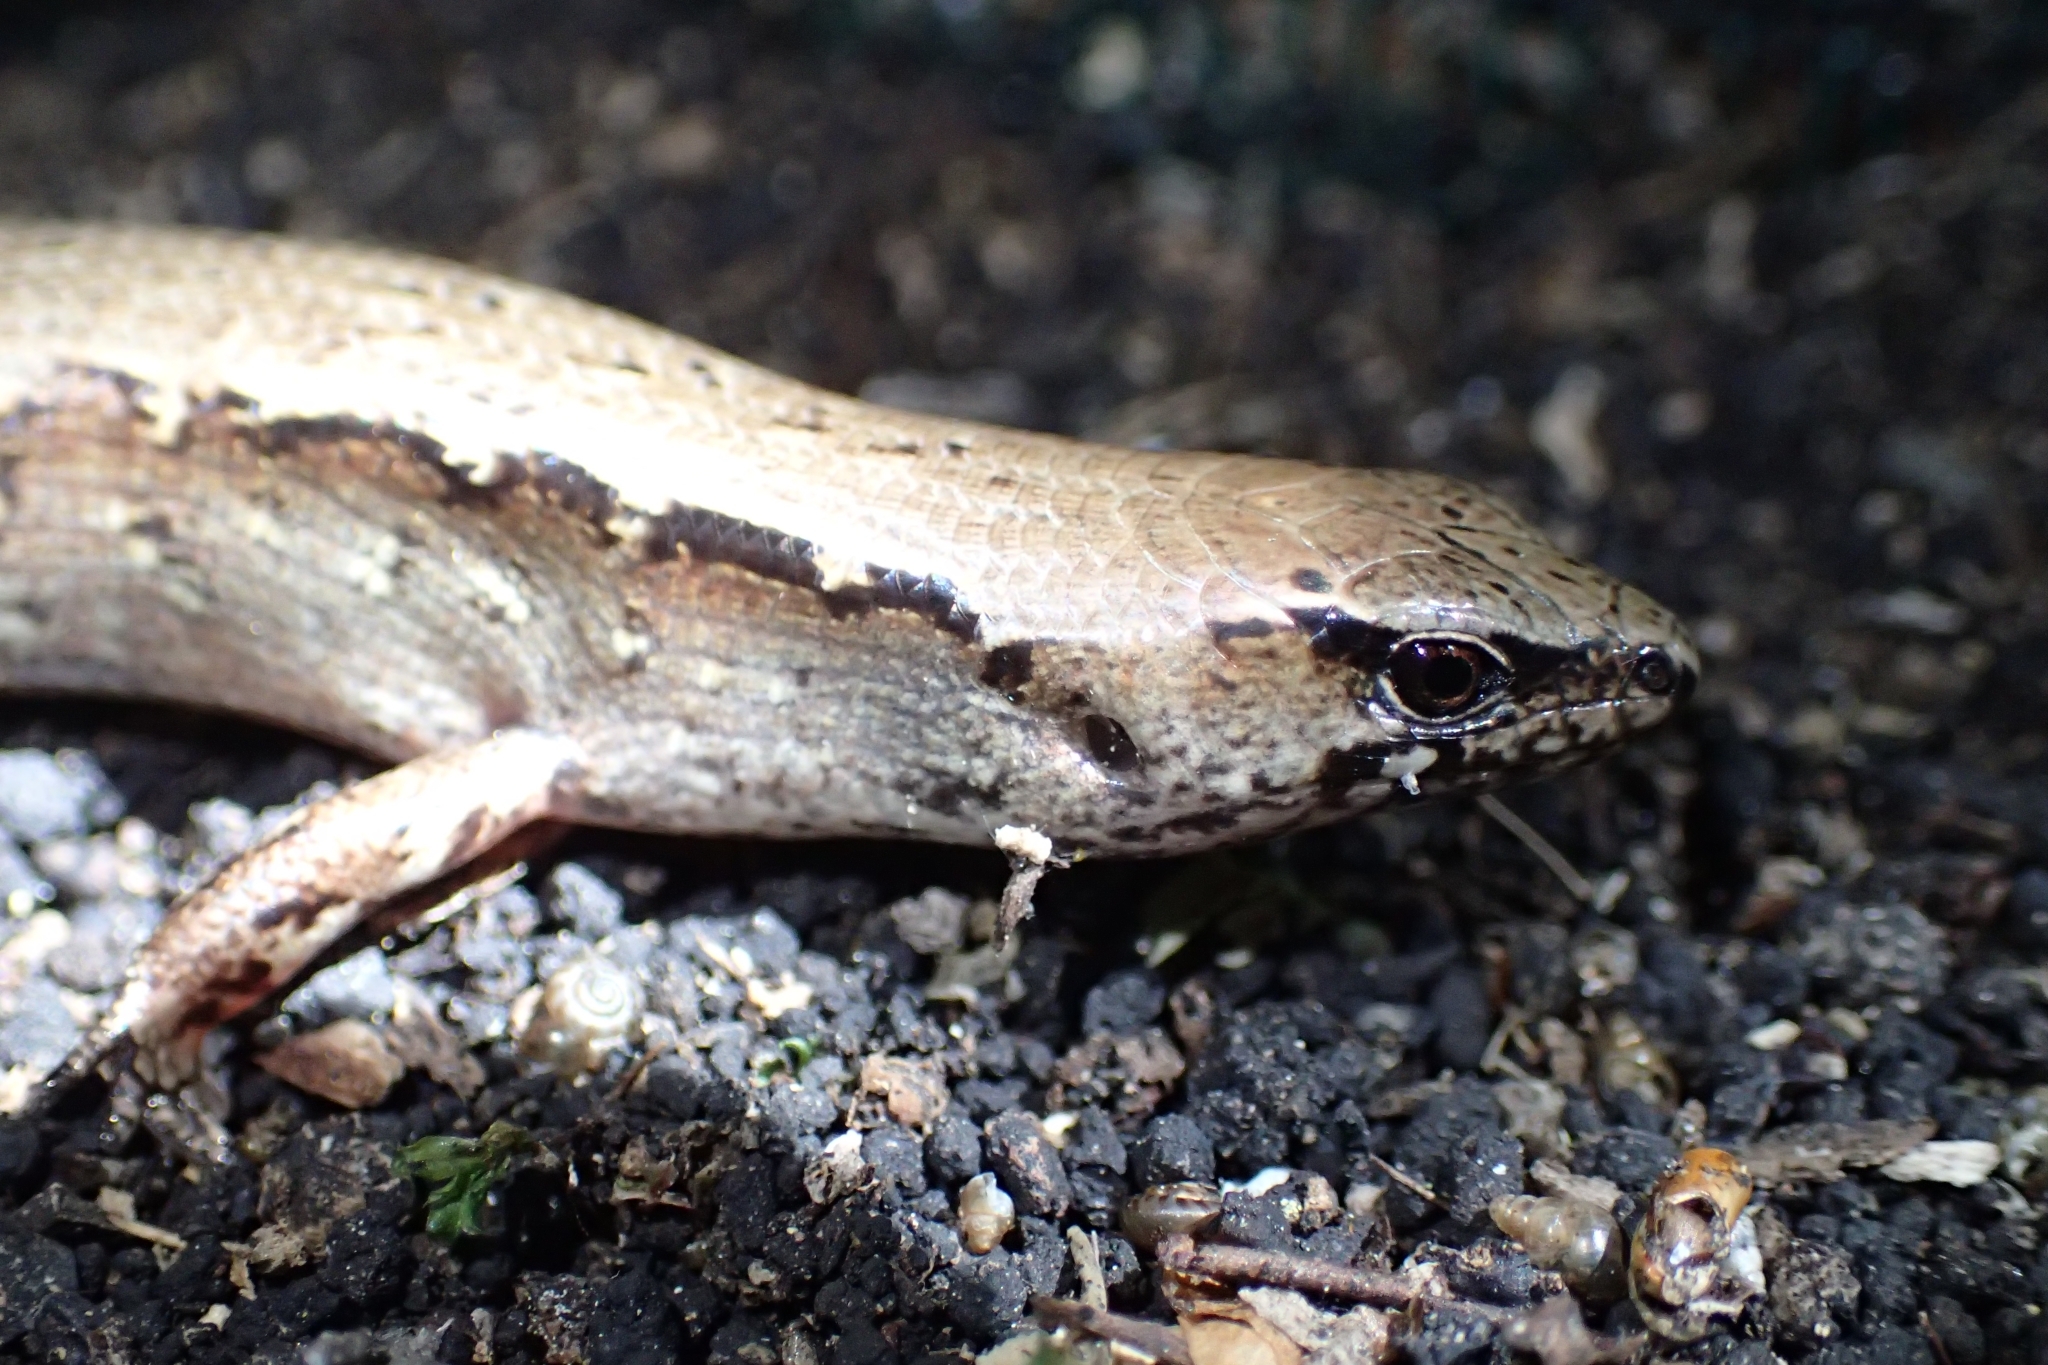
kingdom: Animalia
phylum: Chordata
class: Squamata
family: Scincidae
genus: Oligosoma
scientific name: Oligosoma ornatum
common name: Gray's ornate skink
